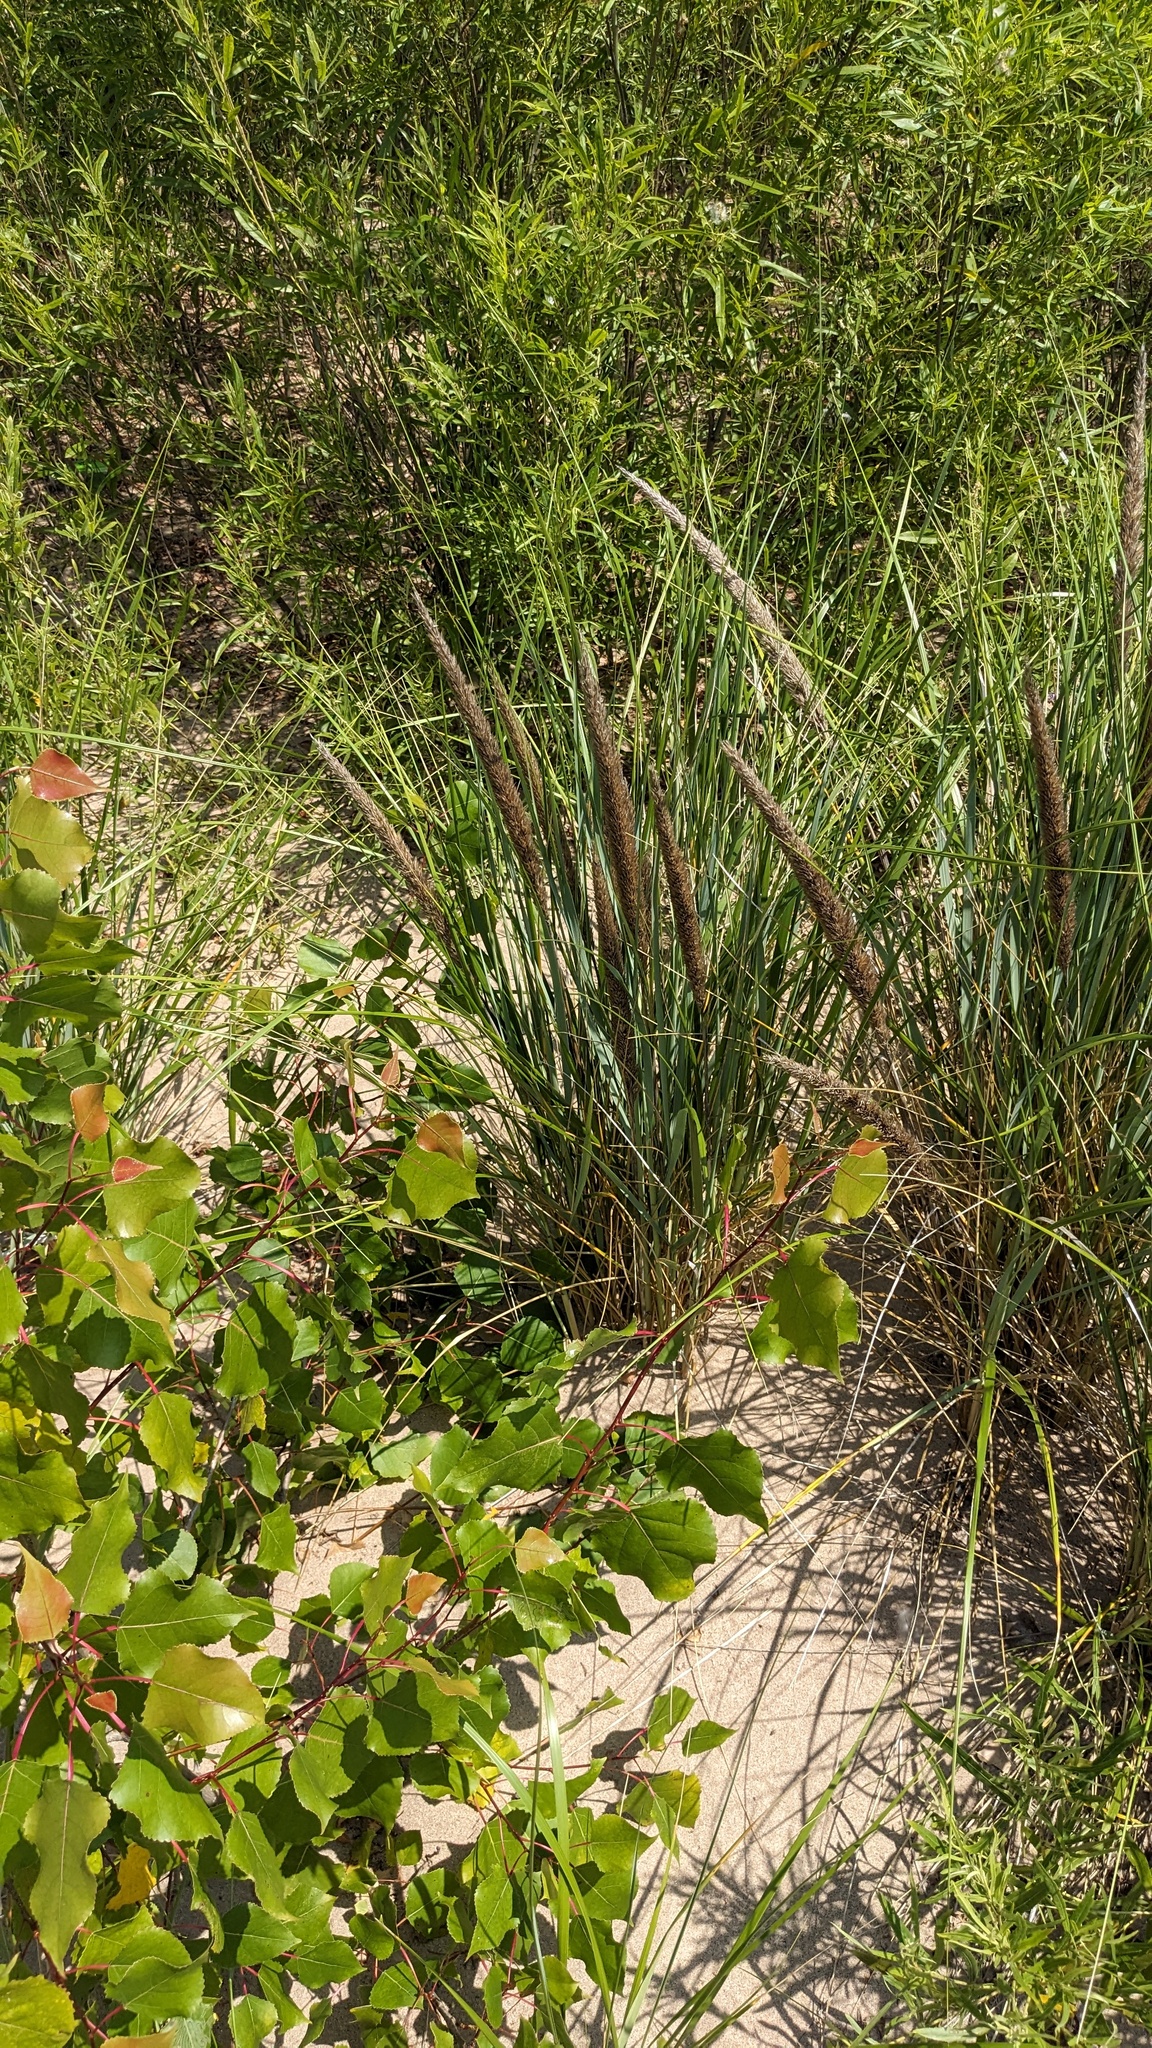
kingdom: Plantae
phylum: Tracheophyta
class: Liliopsida
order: Poales
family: Poaceae
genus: Calamagrostis
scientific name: Calamagrostis breviligulata
